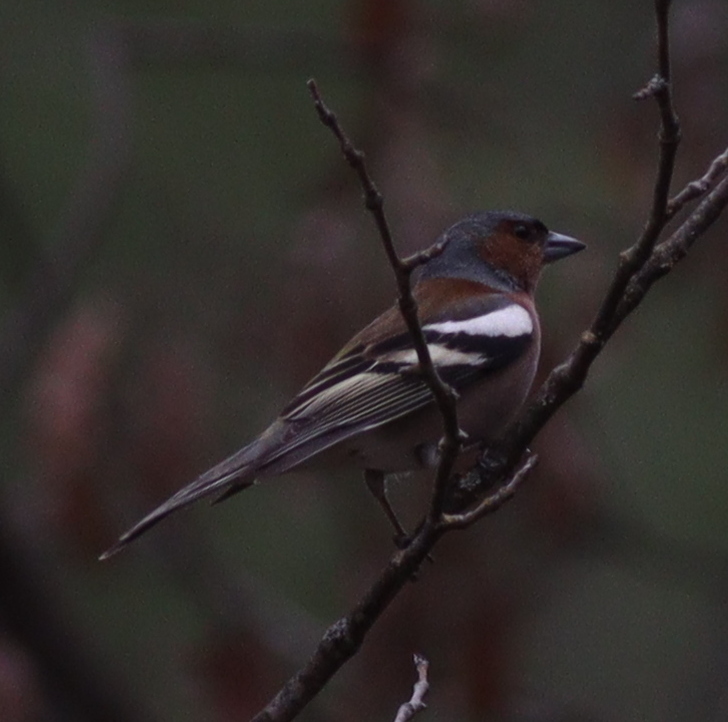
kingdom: Animalia
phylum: Chordata
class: Aves
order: Passeriformes
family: Fringillidae
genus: Fringilla
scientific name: Fringilla coelebs
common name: Common chaffinch
